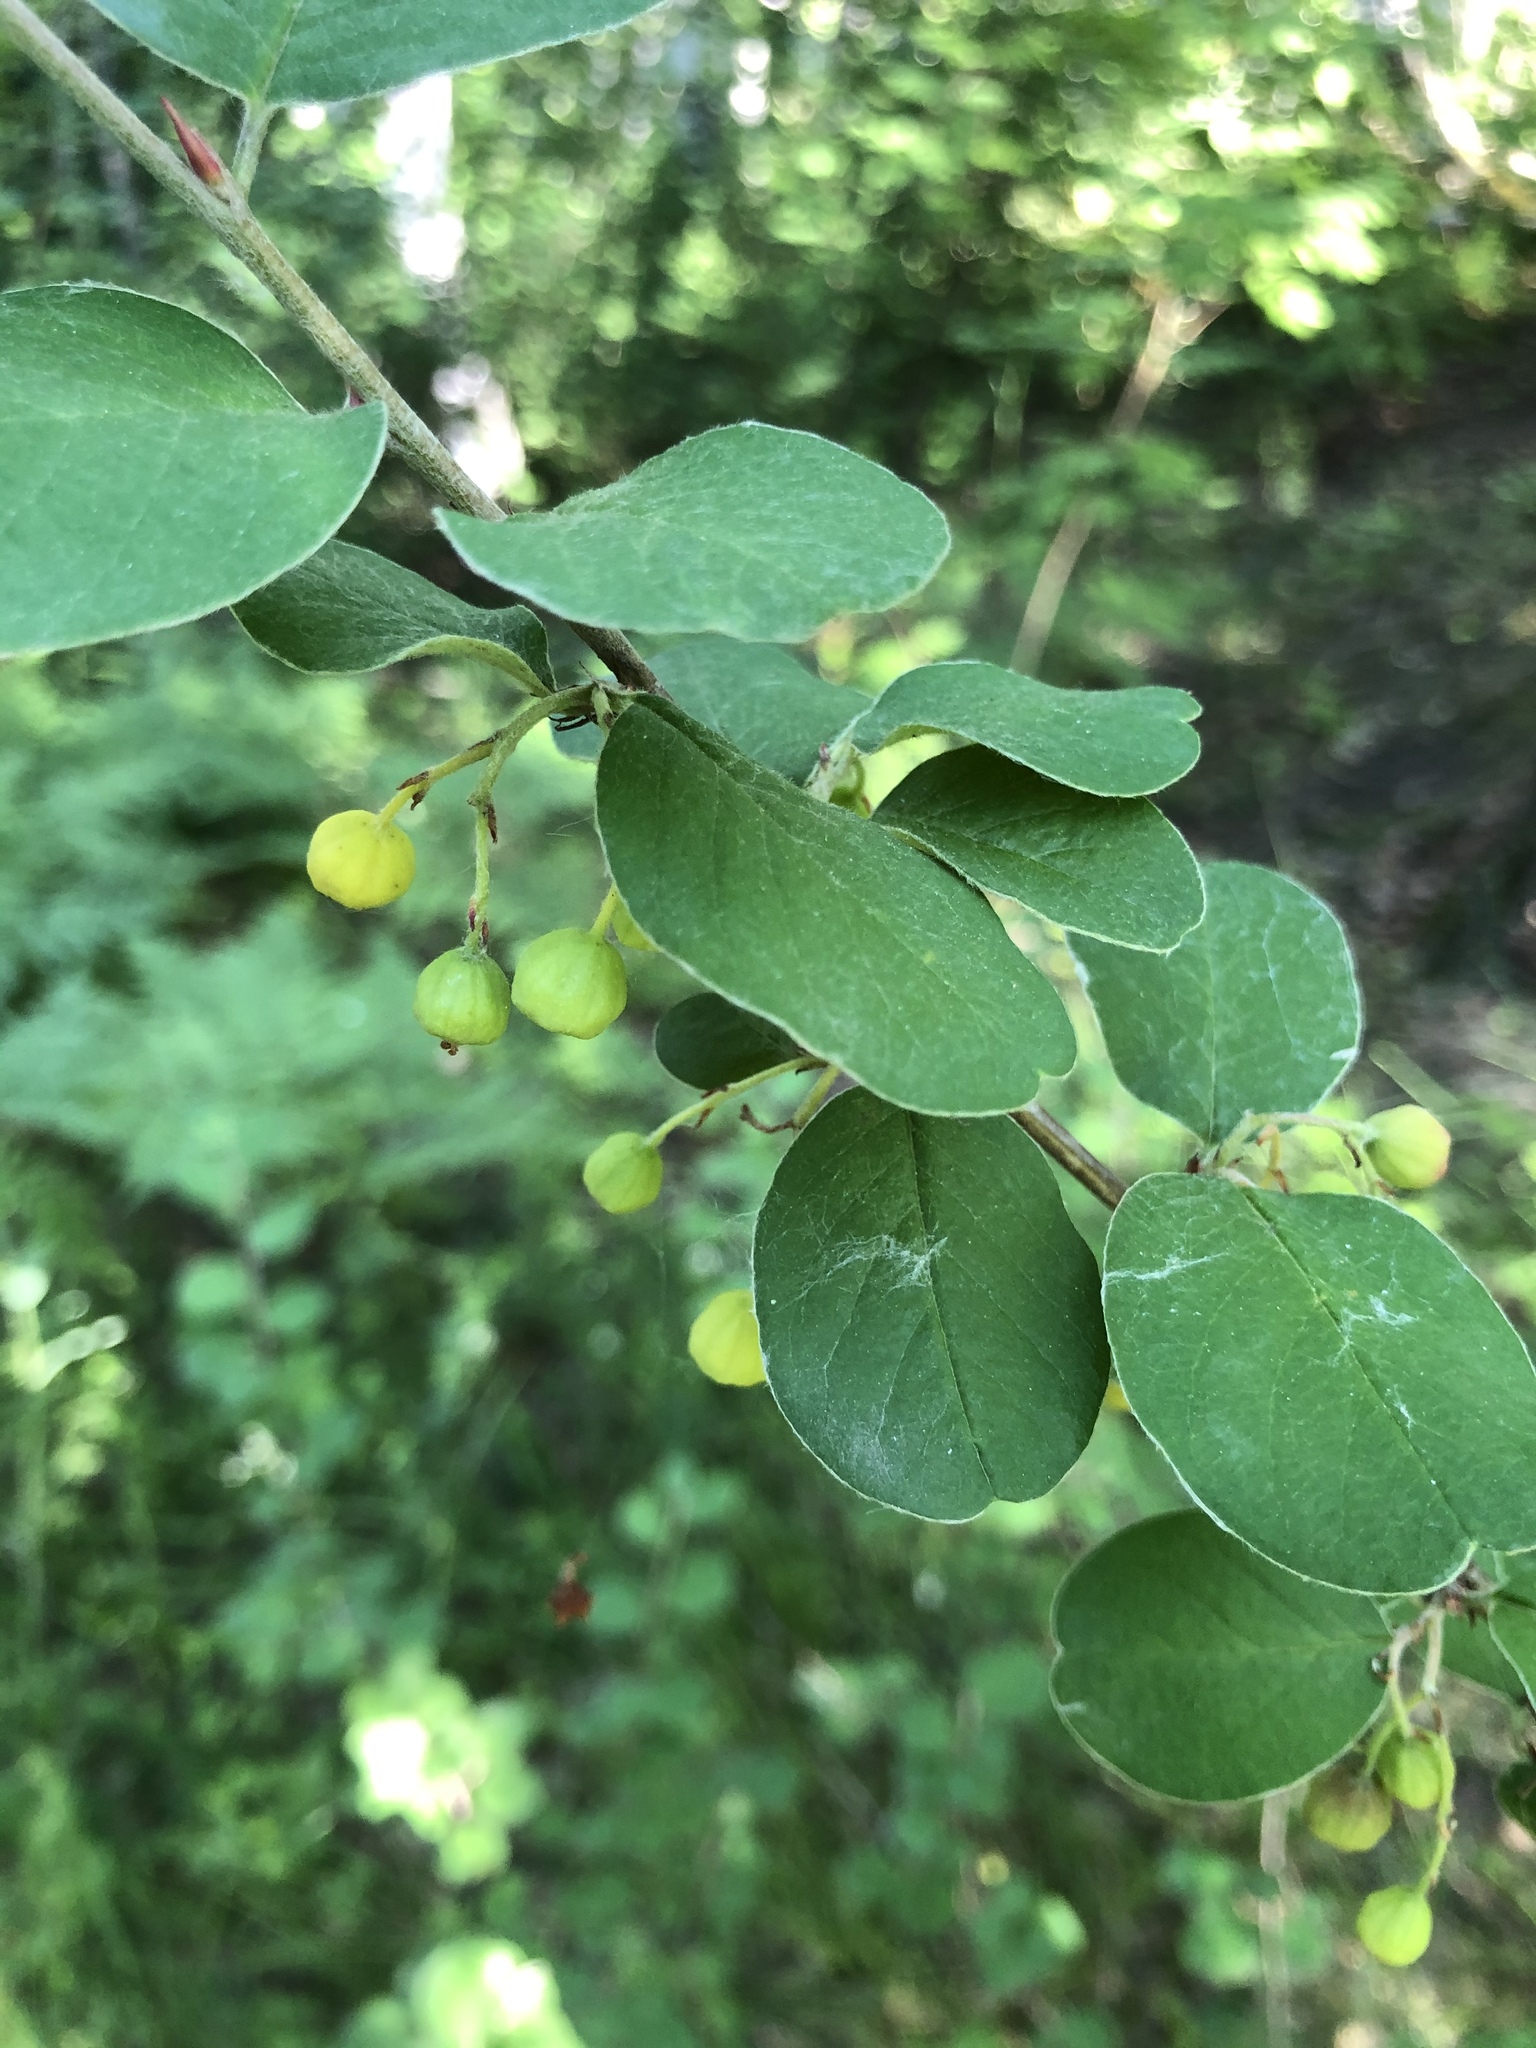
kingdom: Plantae
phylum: Tracheophyta
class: Magnoliopsida
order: Rosales
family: Rosaceae
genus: Cotoneaster
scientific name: Cotoneaster melanocarpus
